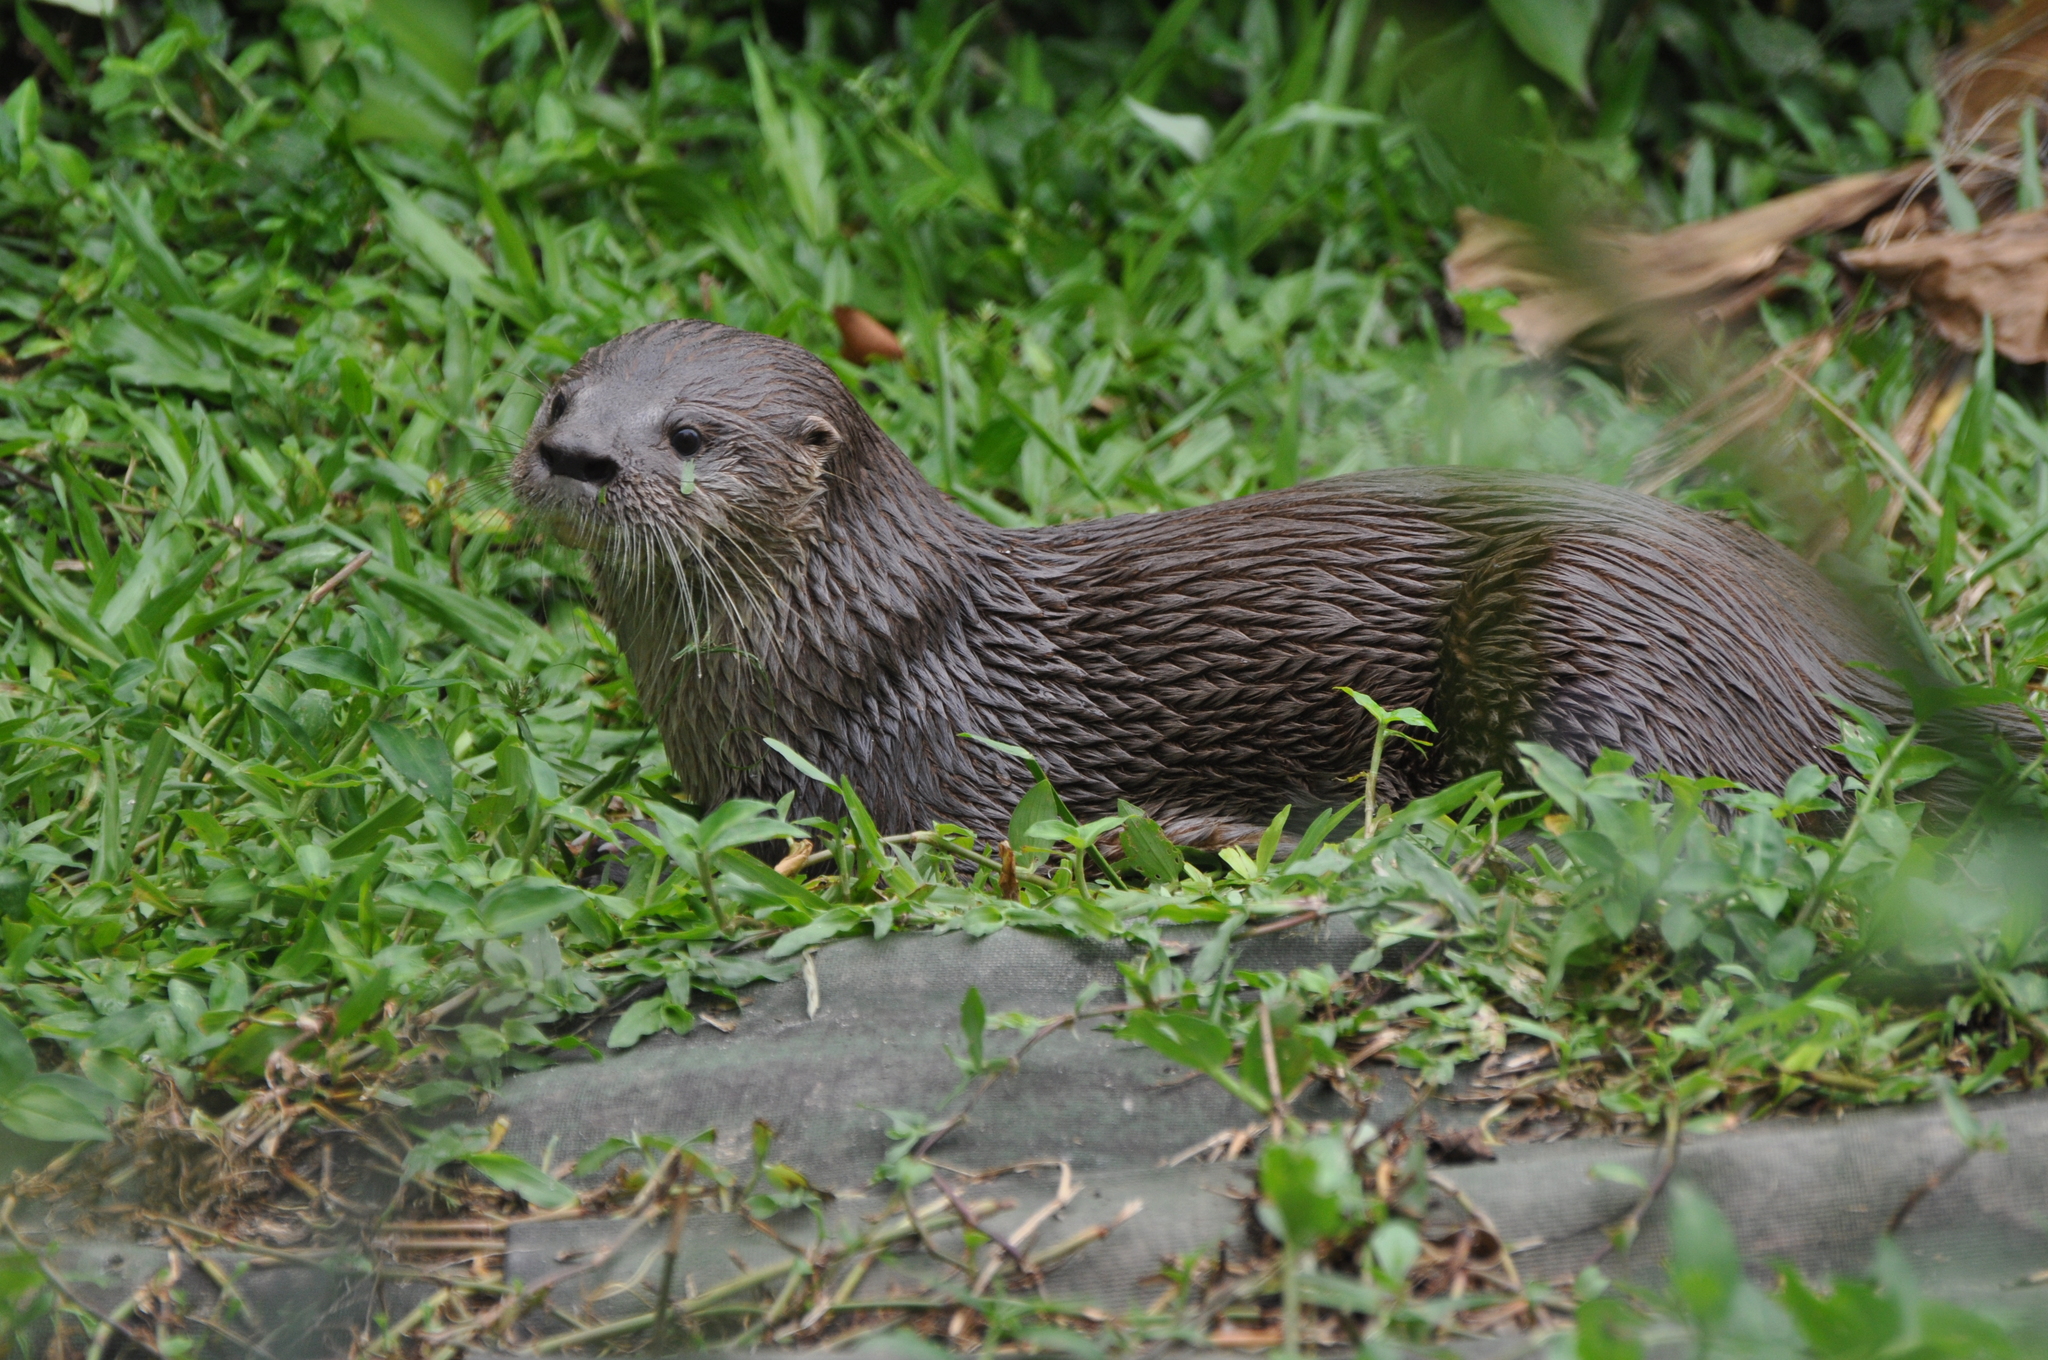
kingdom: Animalia
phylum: Chordata
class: Mammalia
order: Carnivora
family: Mustelidae
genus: Lontra
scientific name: Lontra longicaudis
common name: Neotropical otter
